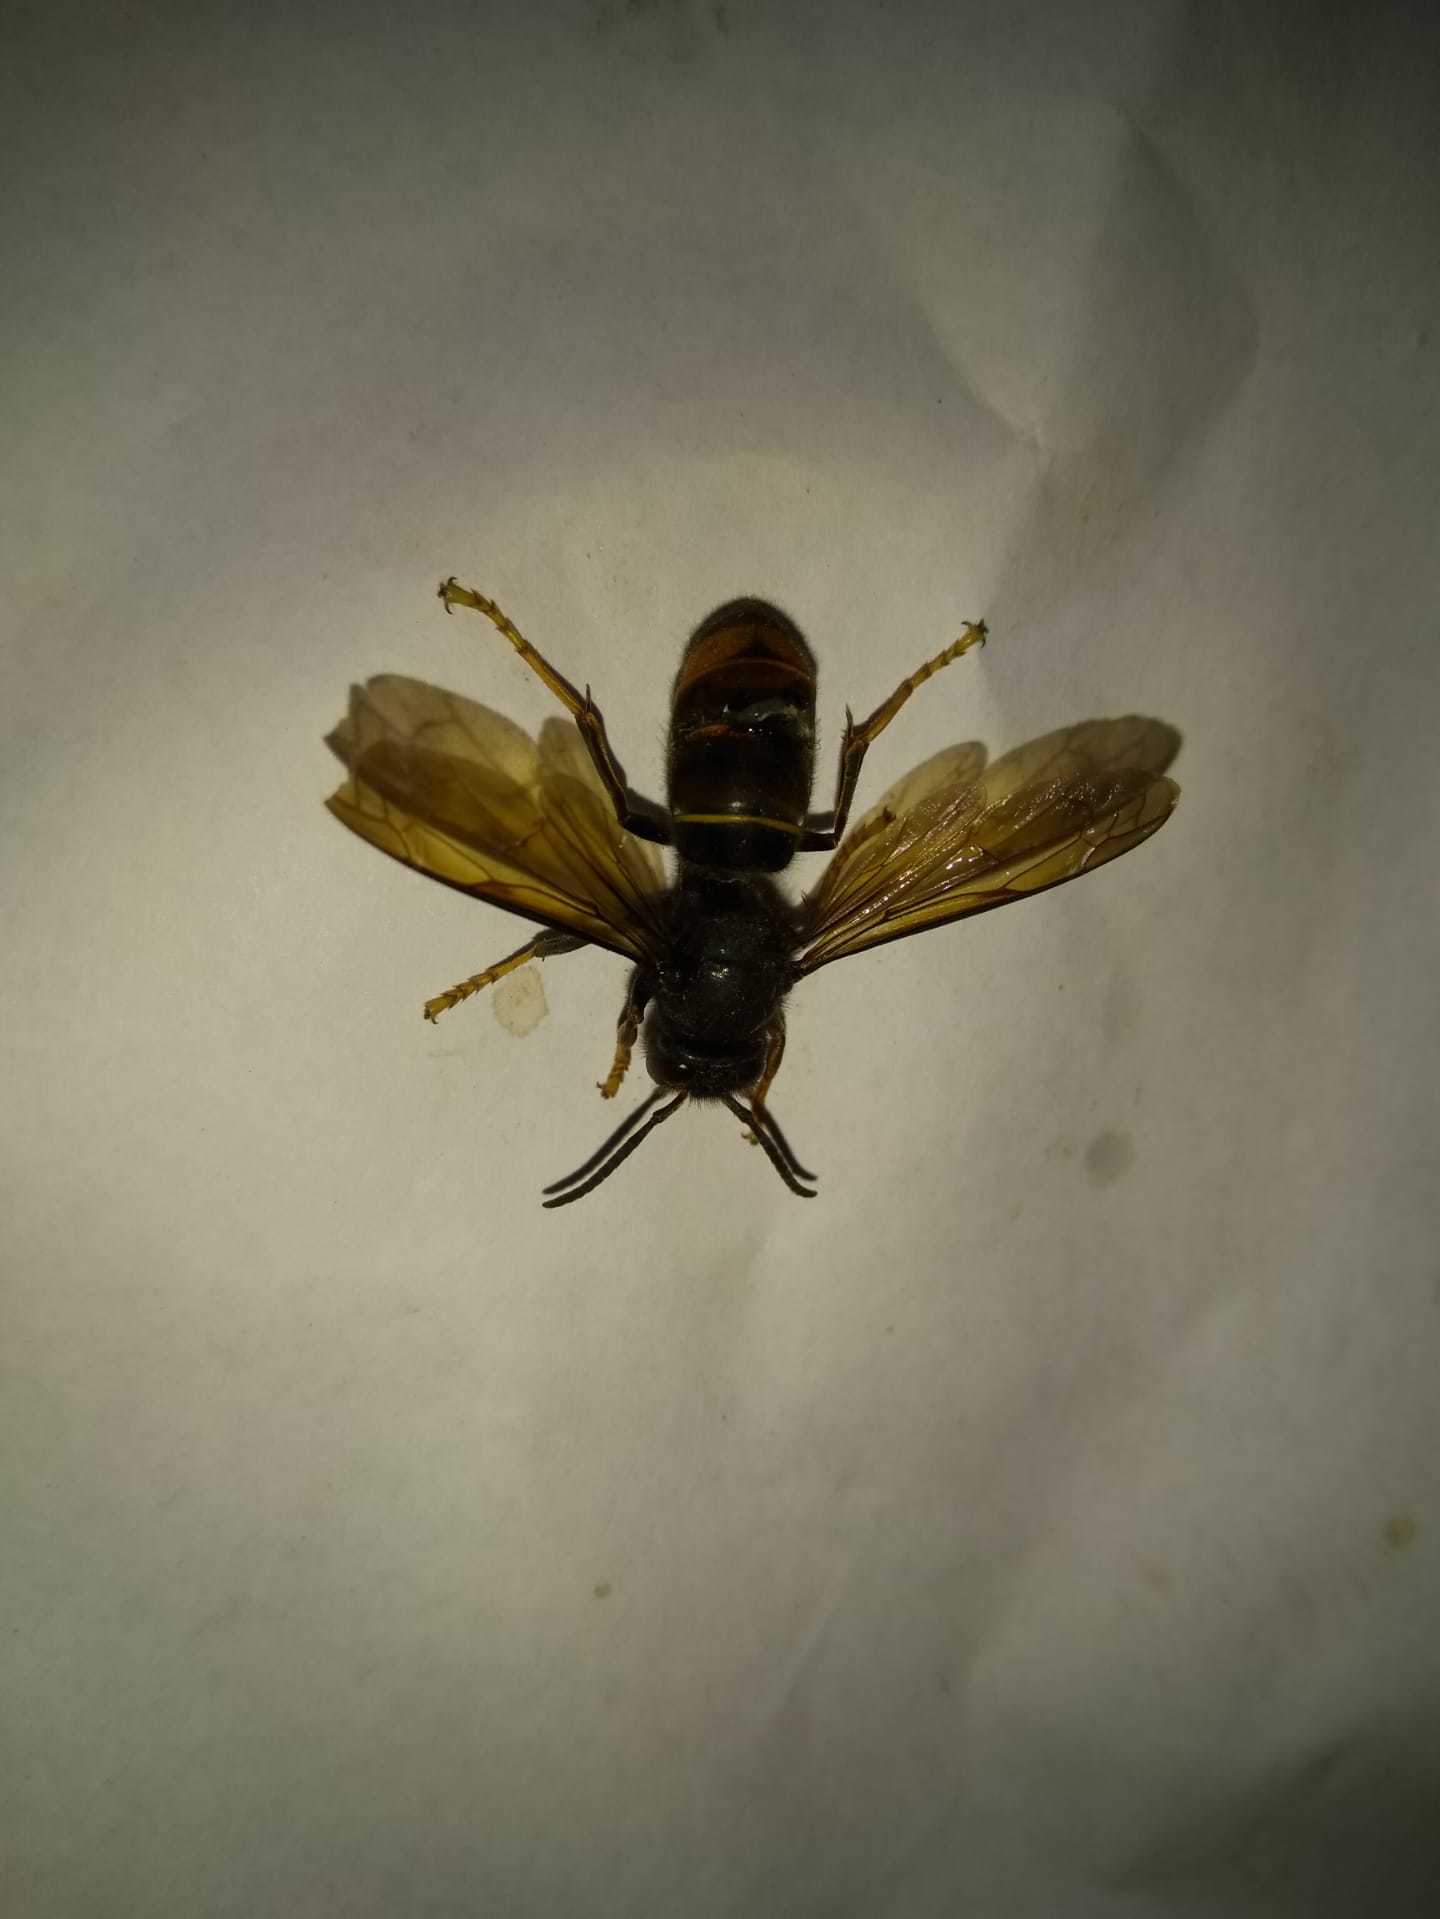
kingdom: Animalia
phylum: Arthropoda
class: Insecta
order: Hymenoptera
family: Vespidae
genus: Vespa
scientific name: Vespa velutina
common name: Asian hornet
